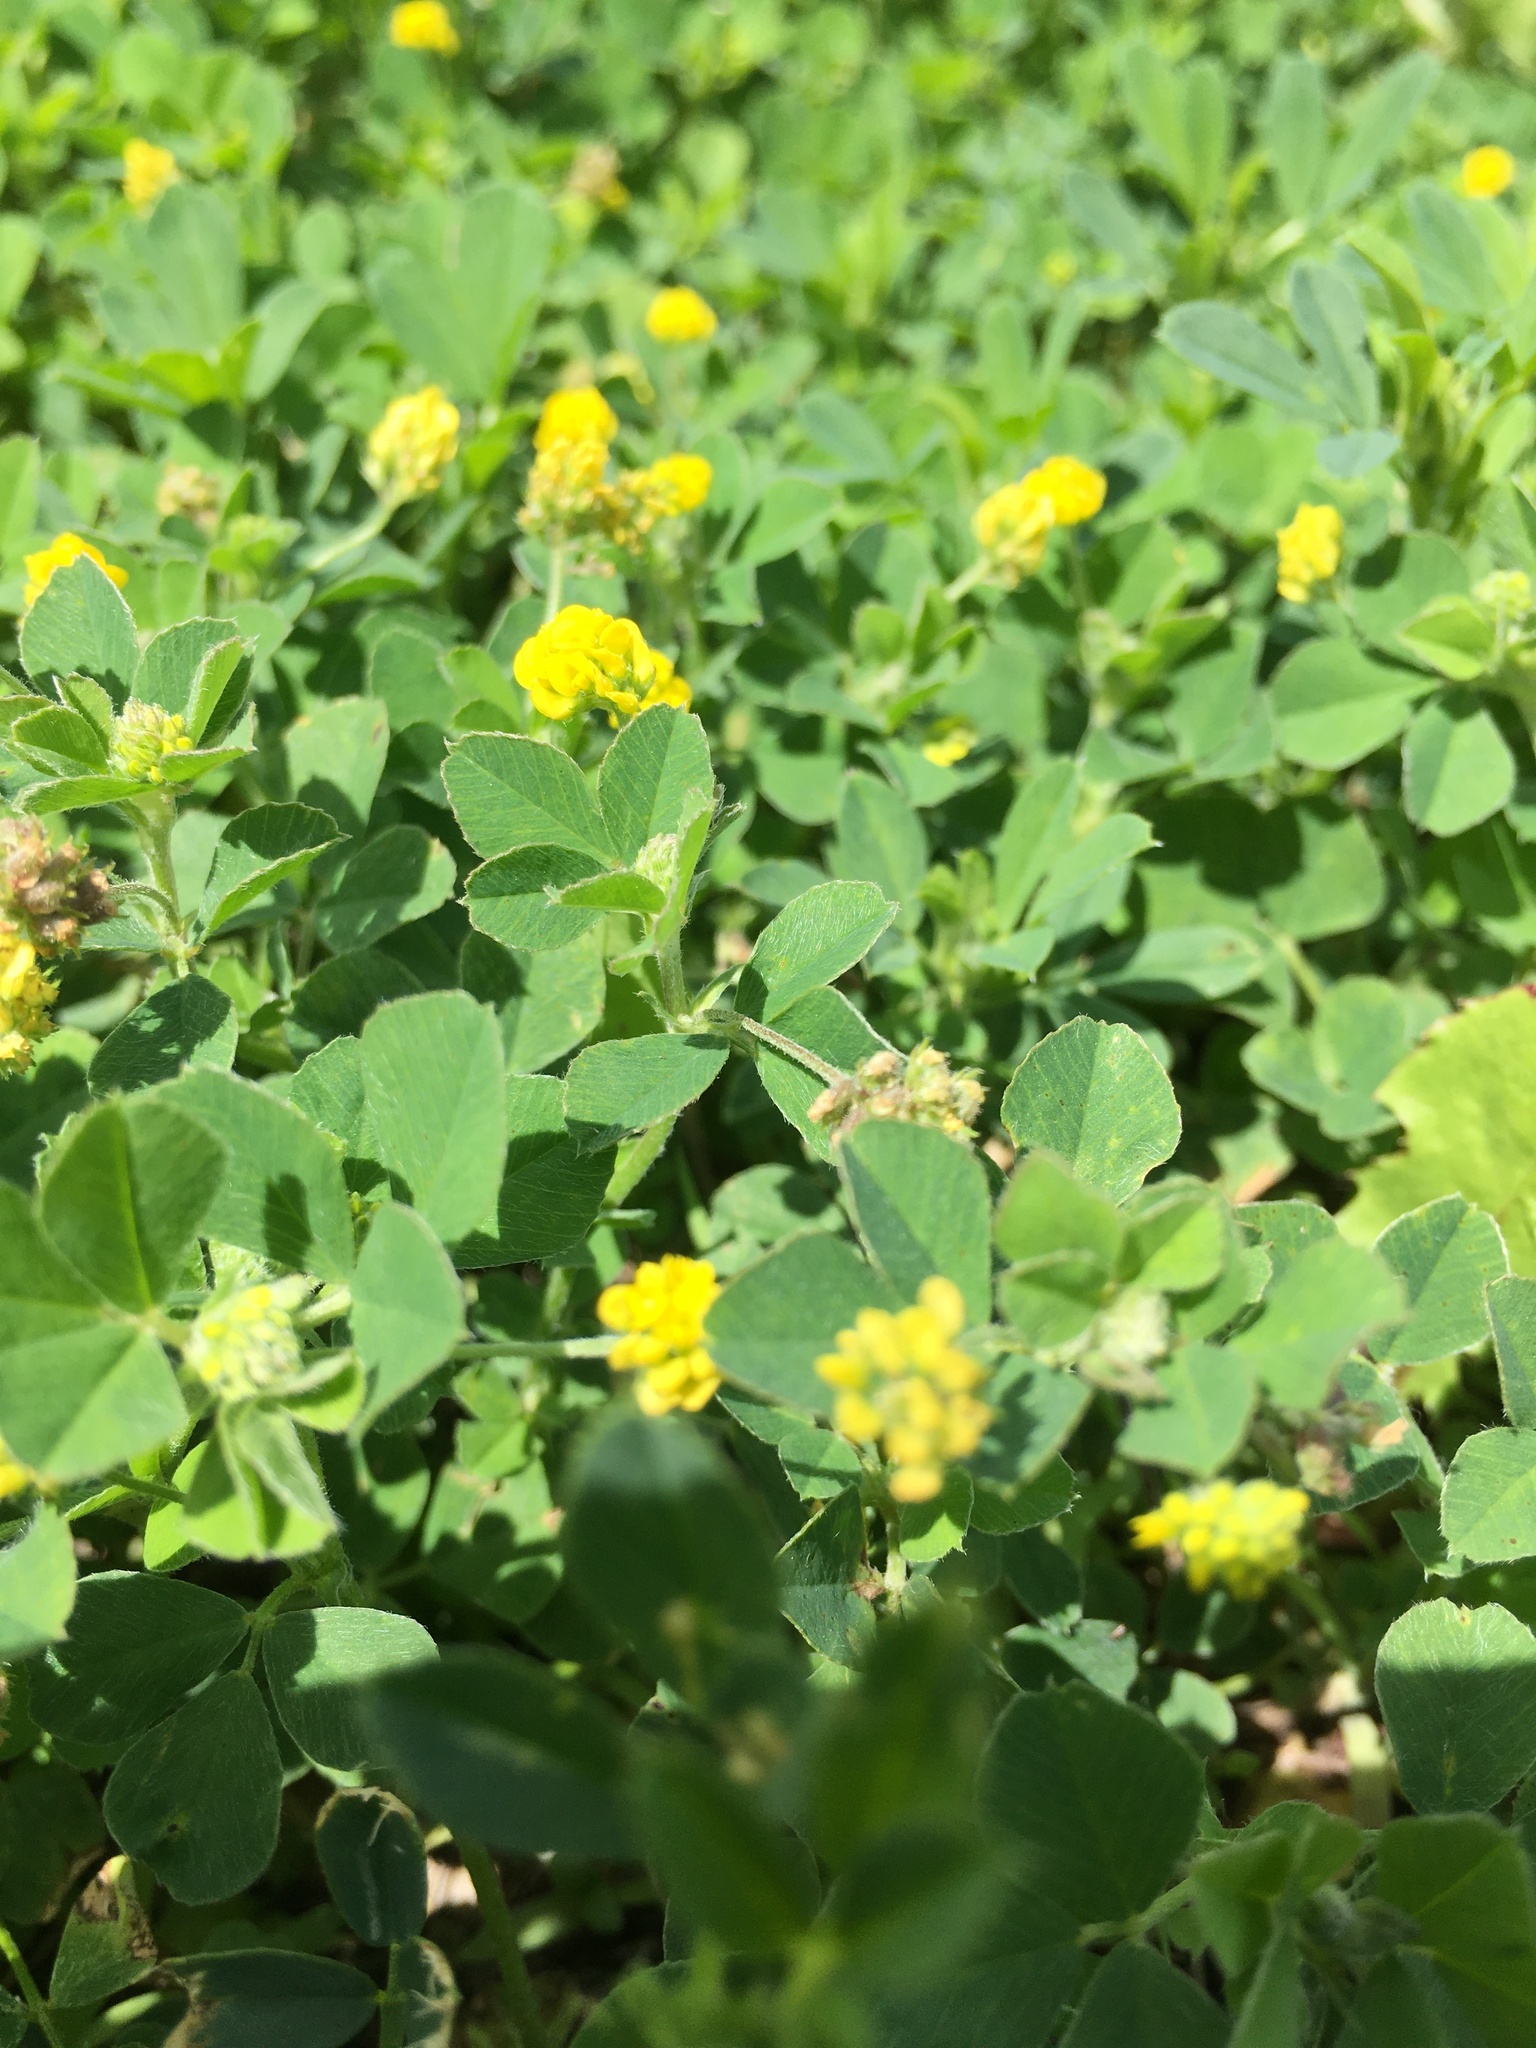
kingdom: Plantae
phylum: Tracheophyta
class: Magnoliopsida
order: Fabales
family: Fabaceae
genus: Medicago
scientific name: Medicago lupulina
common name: Black medick
